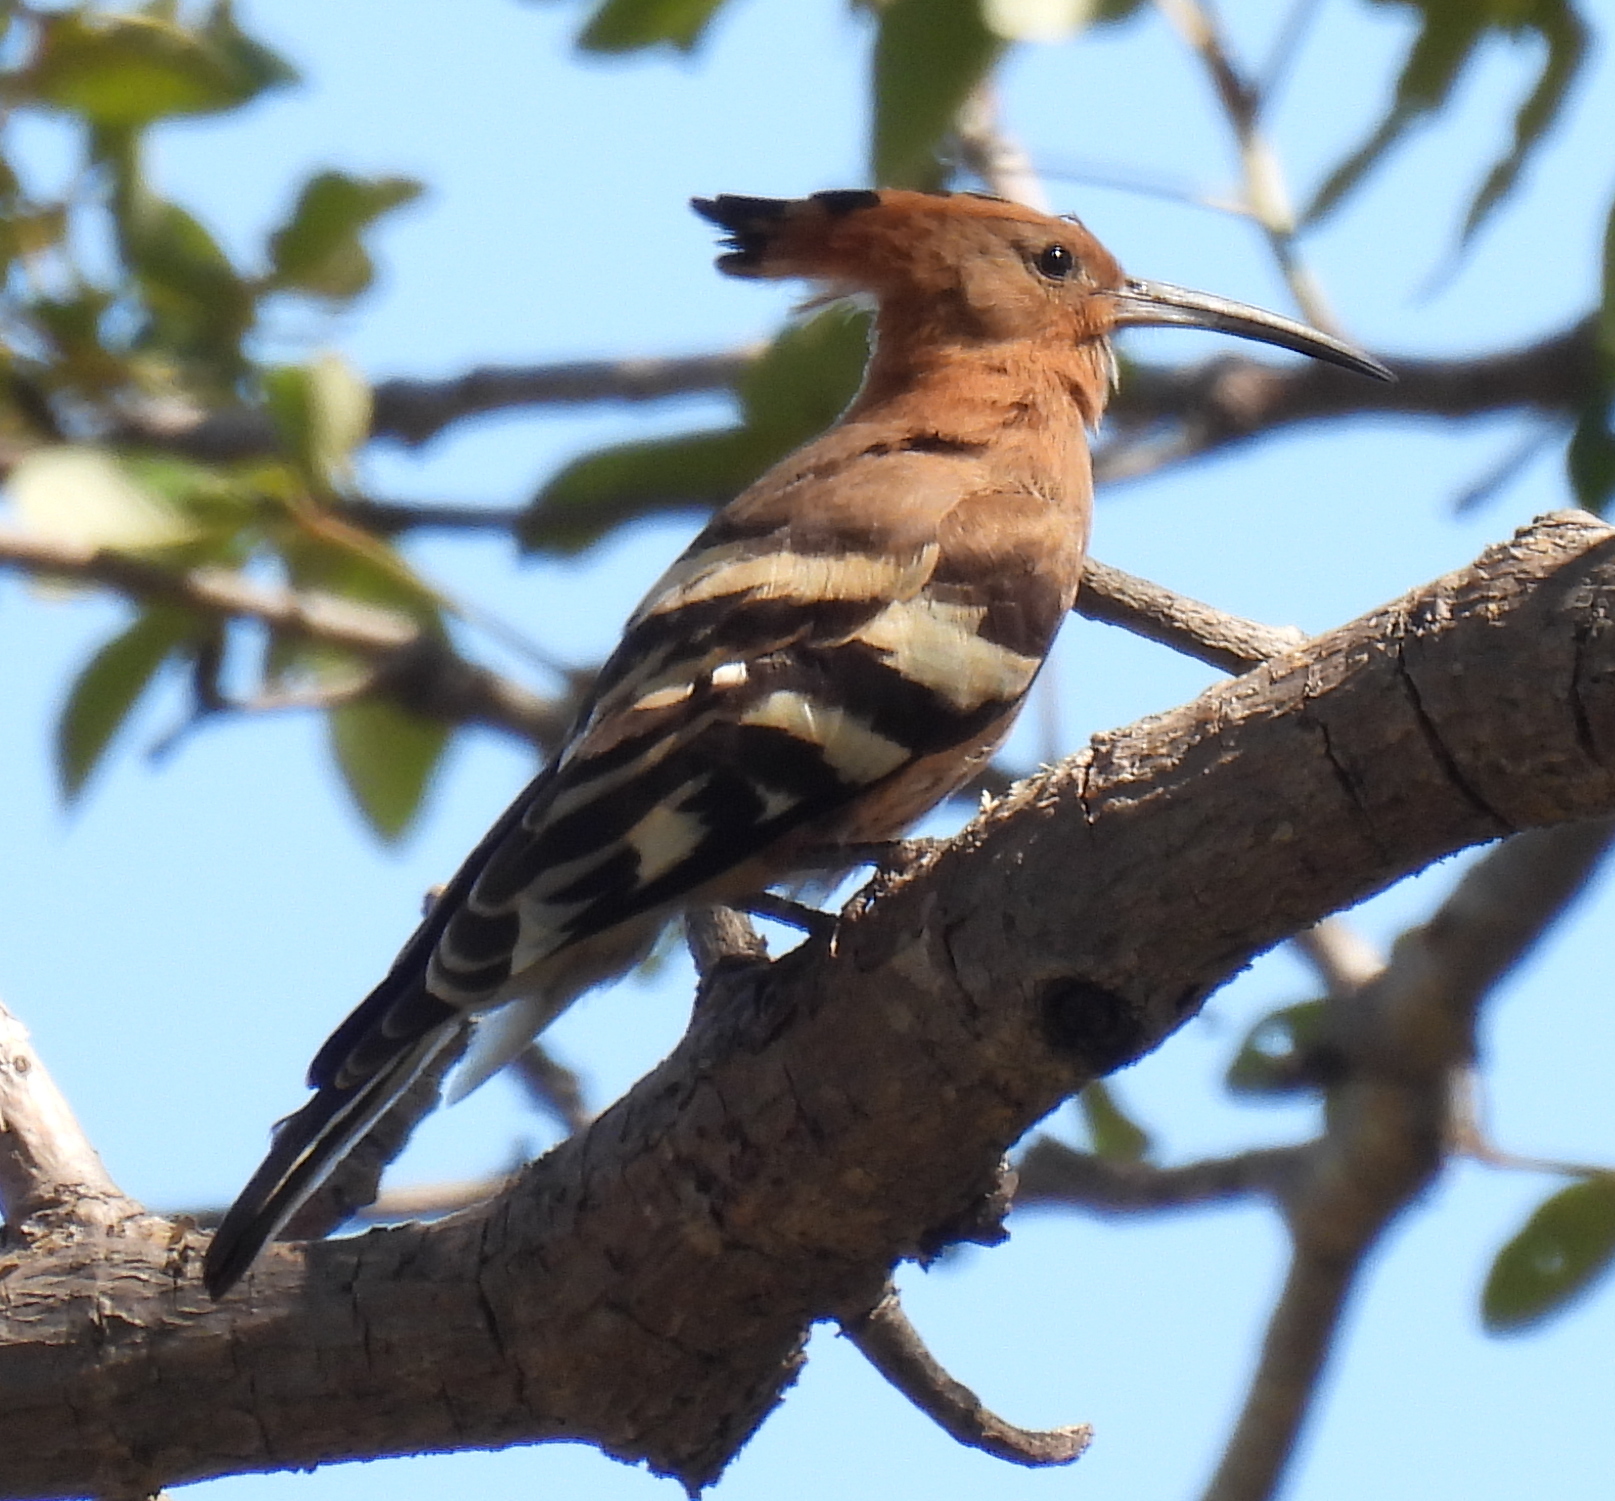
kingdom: Animalia
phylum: Chordata
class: Aves
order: Bucerotiformes
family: Upupidae
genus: Upupa
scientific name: Upupa epops
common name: Eurasian hoopoe
